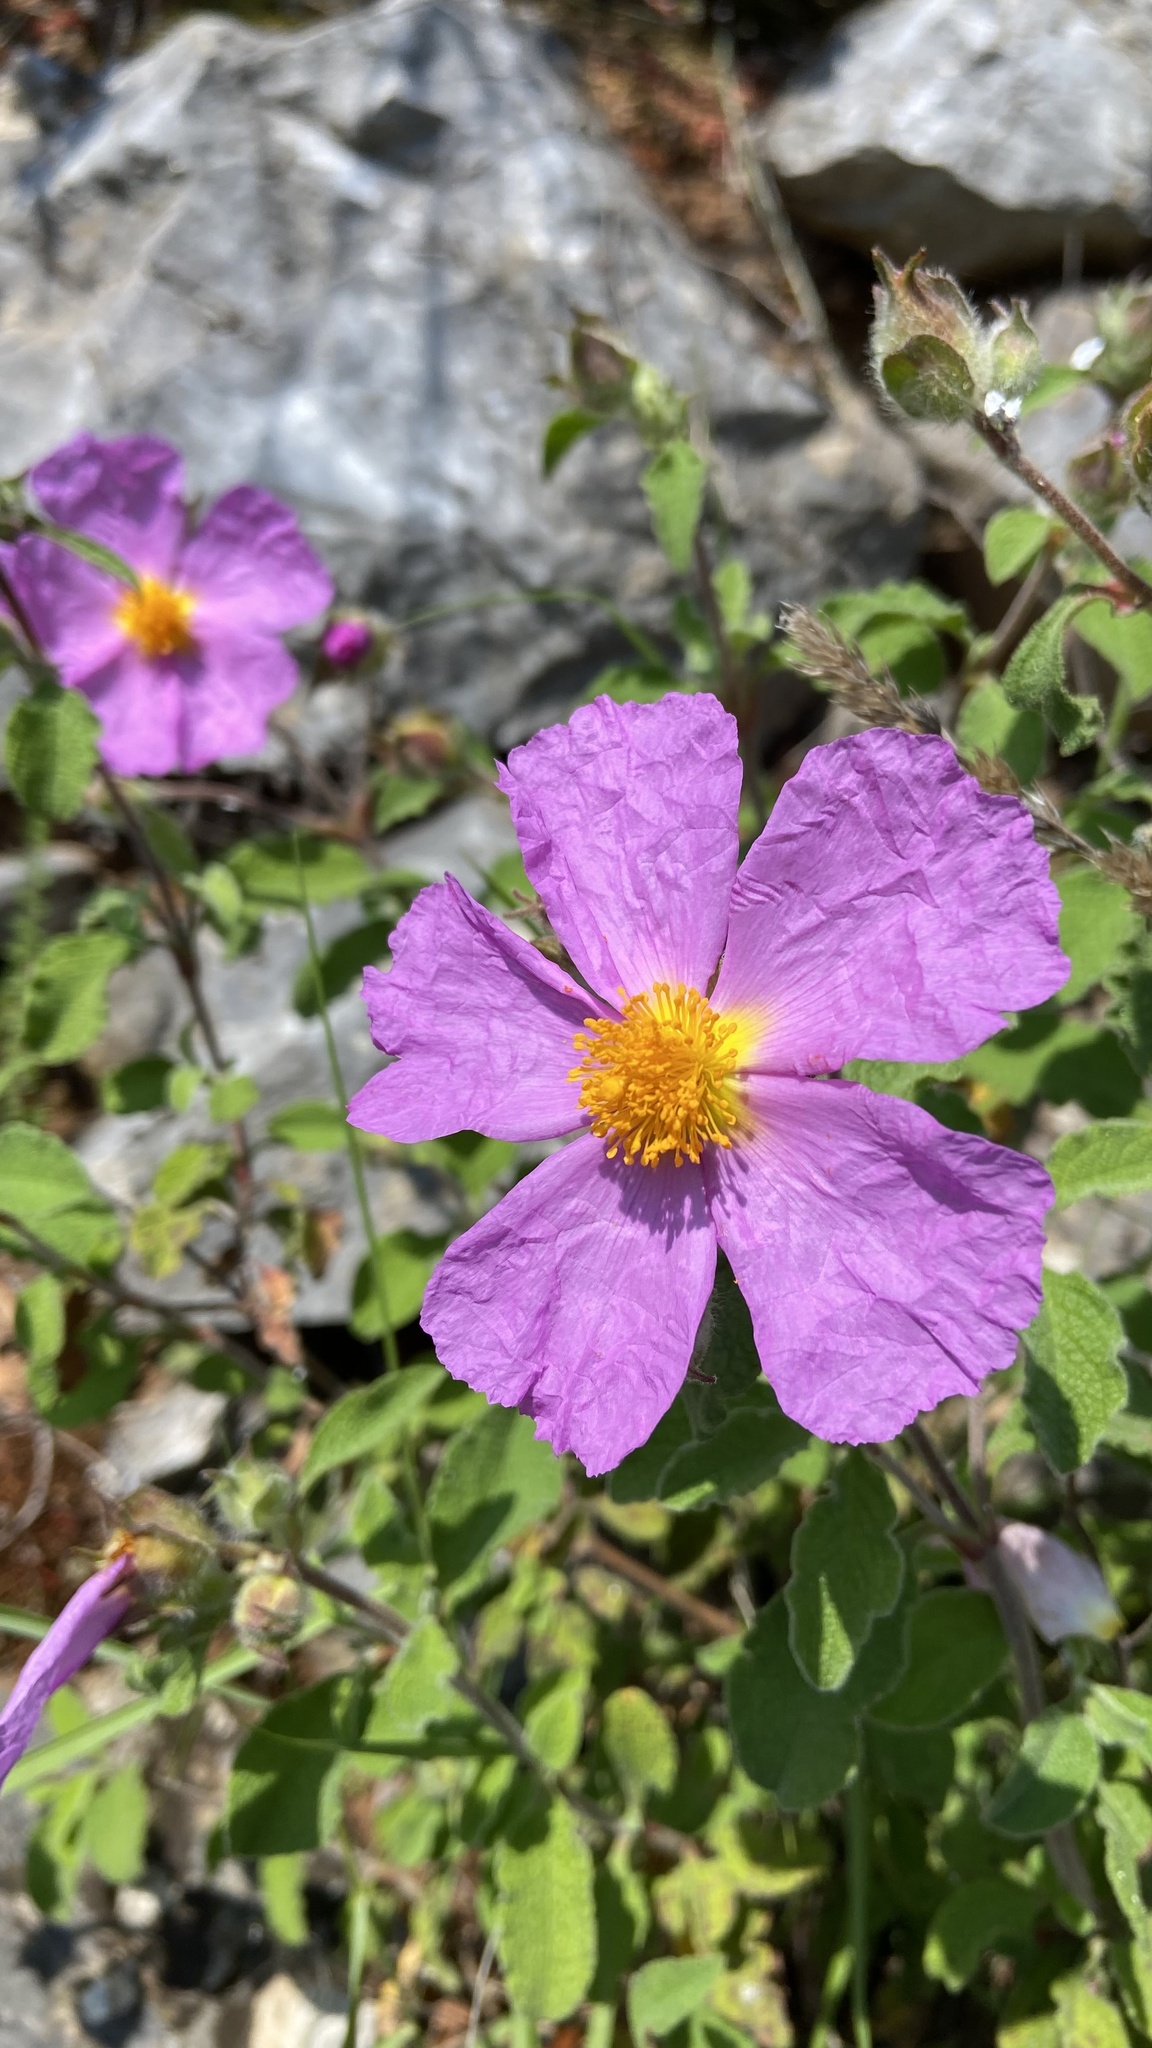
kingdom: Plantae
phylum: Tracheophyta
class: Magnoliopsida
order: Malvales
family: Cistaceae
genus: Cistus
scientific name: Cistus creticus
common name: Cretan rockrose
